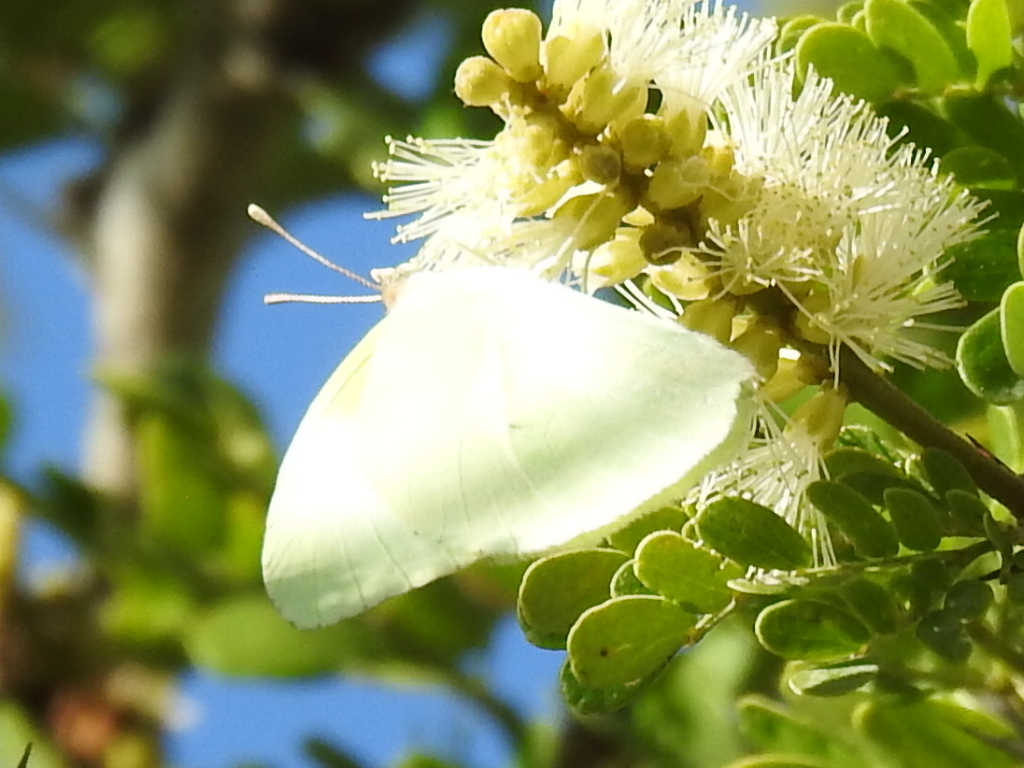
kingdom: Animalia
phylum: Arthropoda
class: Insecta
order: Lepidoptera
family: Pieridae
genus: Kricogonia
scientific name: Kricogonia lyside
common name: Guayacan sulphur,
